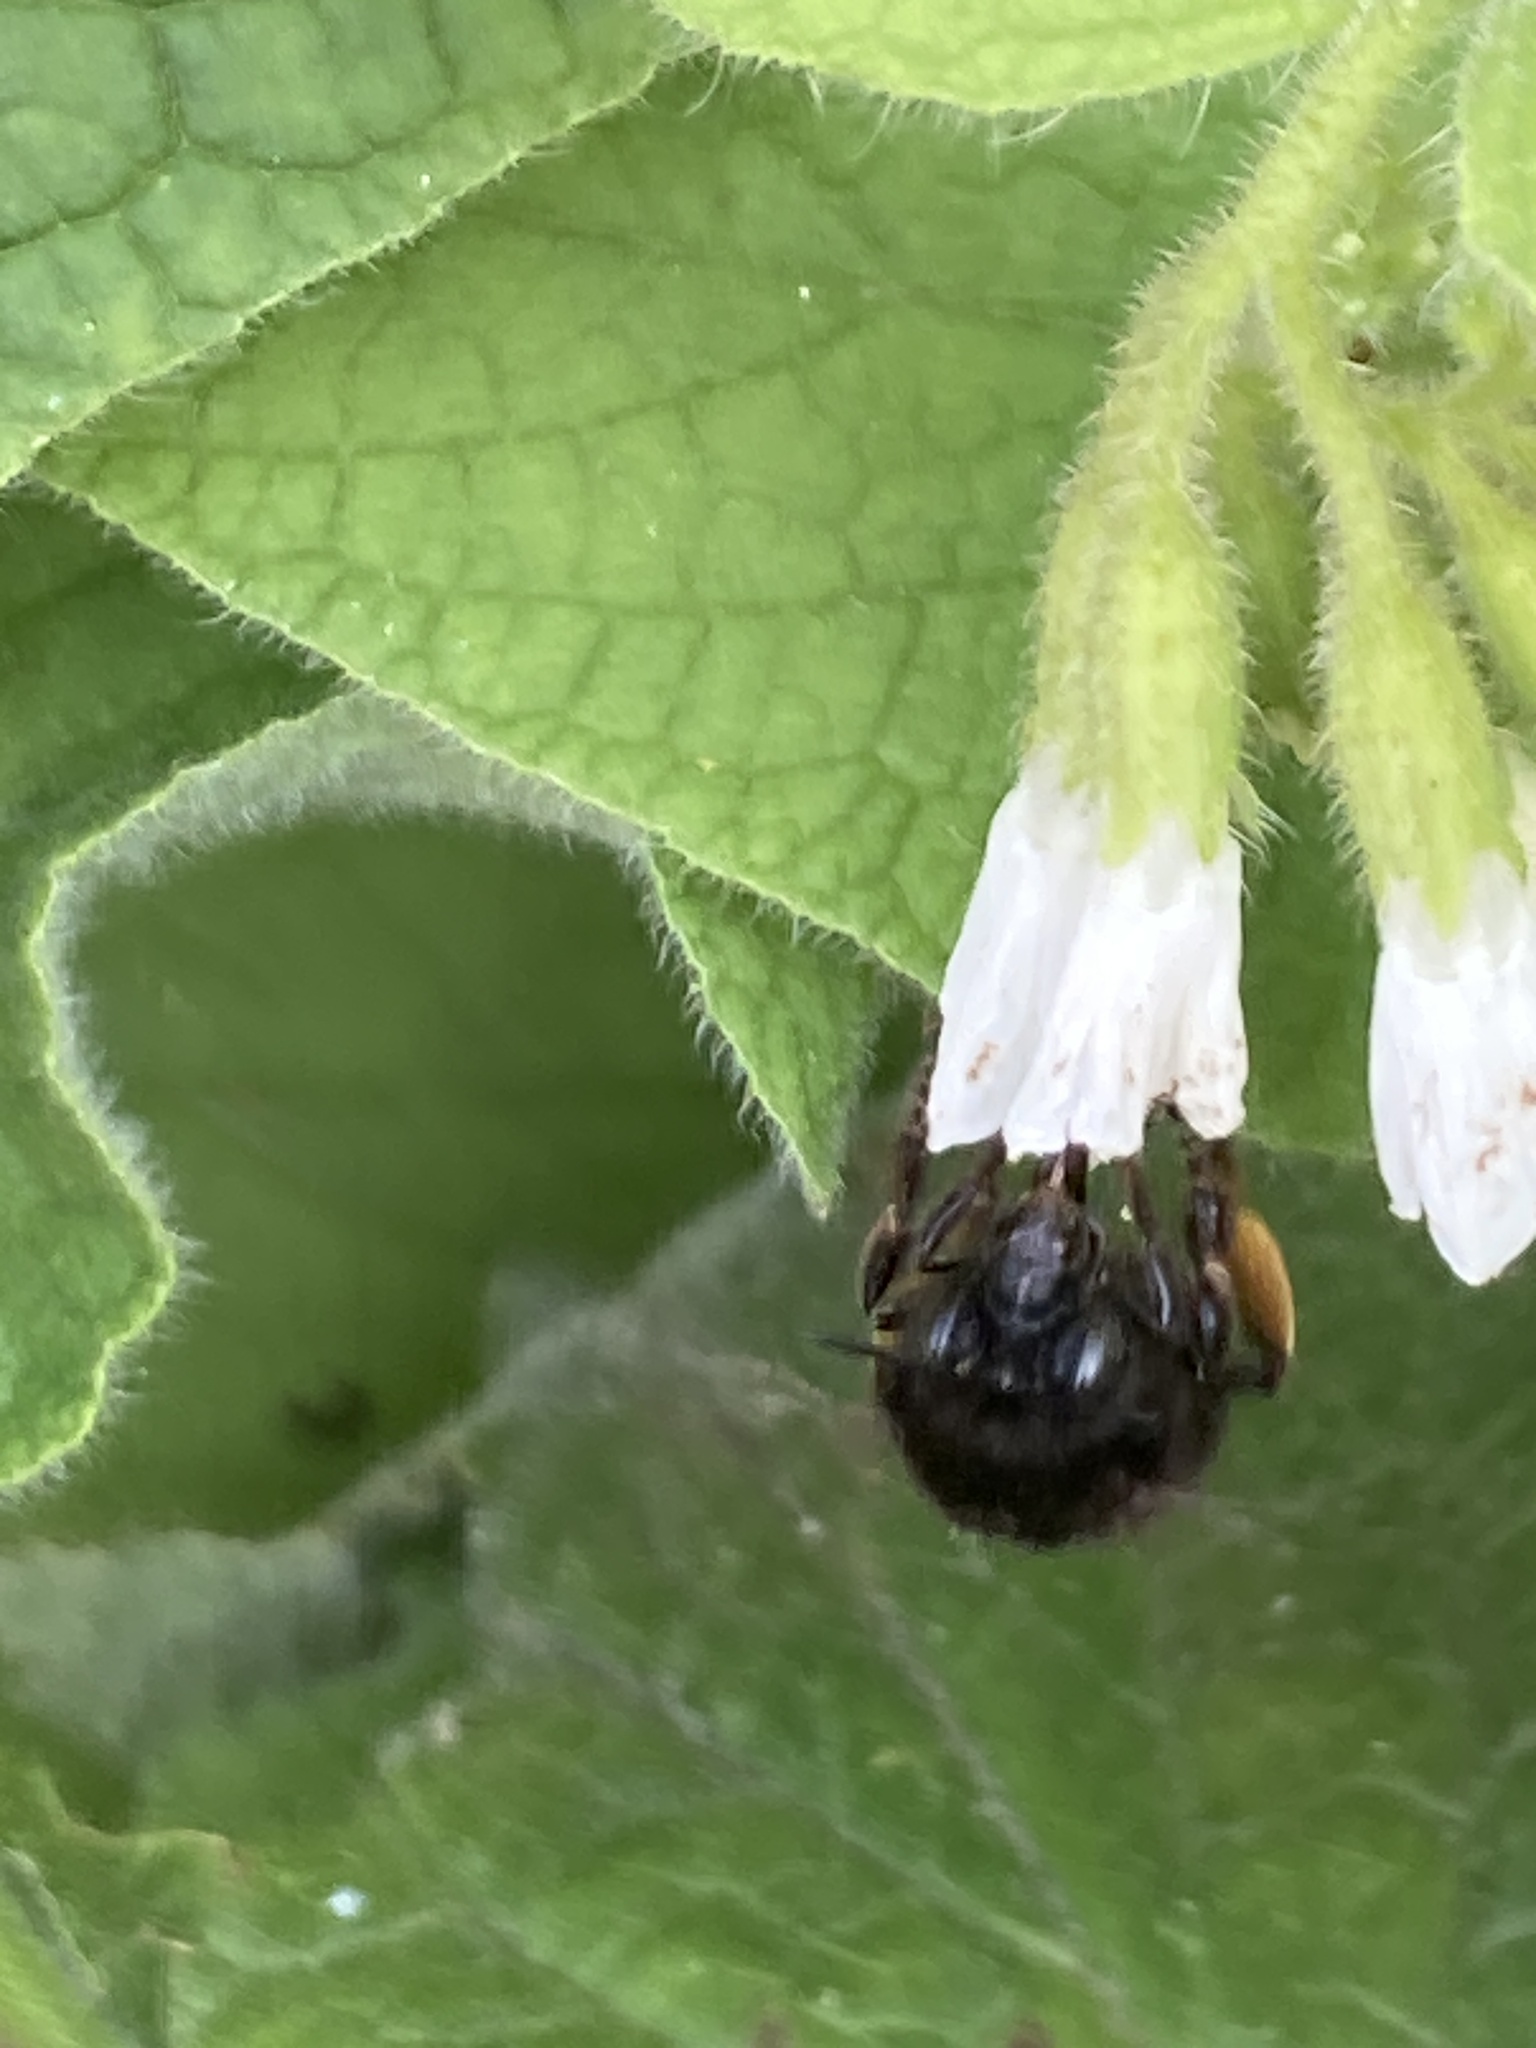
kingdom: Animalia
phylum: Arthropoda
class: Insecta
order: Hymenoptera
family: Apidae
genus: Anthophora
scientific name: Anthophora plumipes
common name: Hairy-footed flower bee
